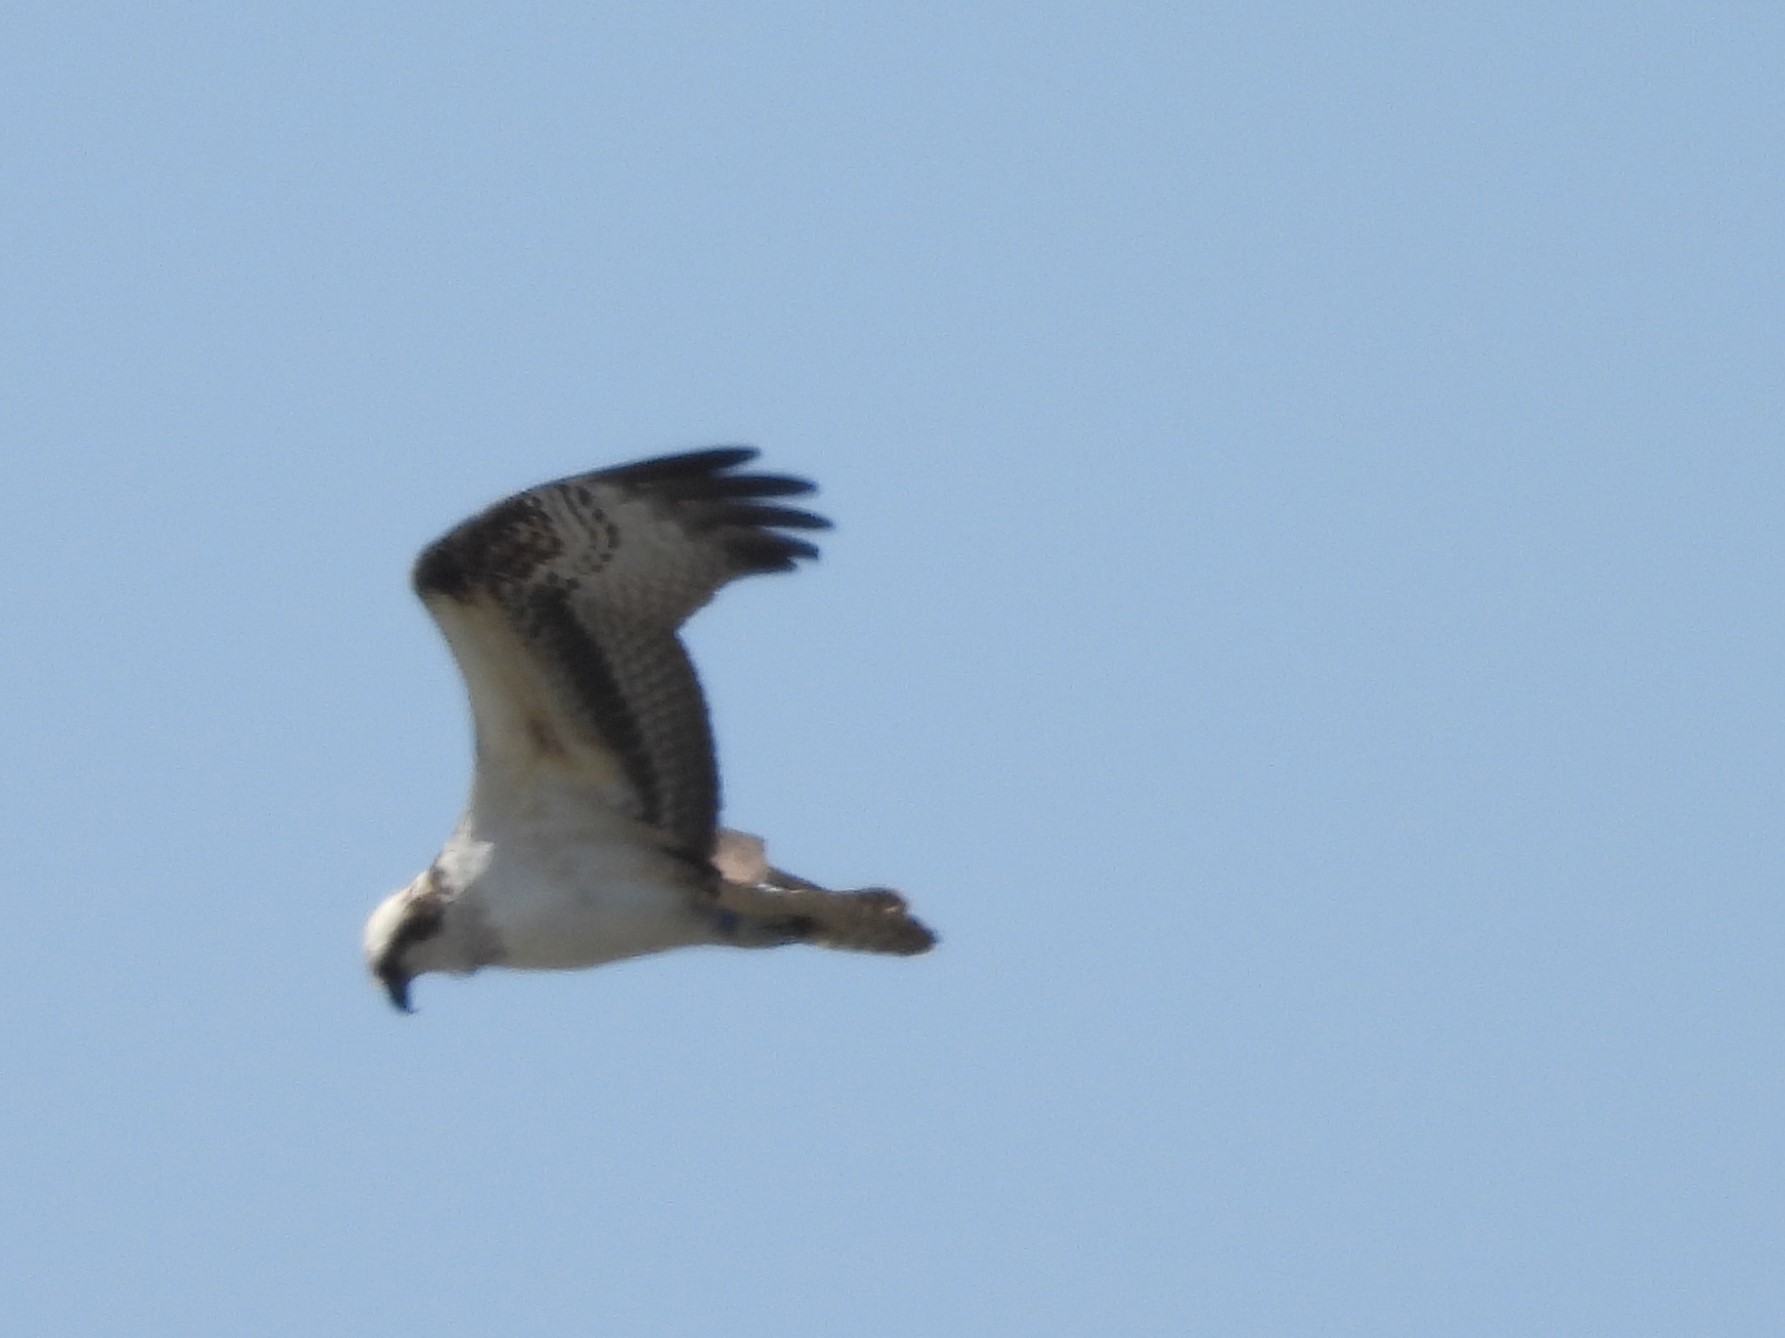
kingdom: Animalia
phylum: Chordata
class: Aves
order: Accipitriformes
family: Pandionidae
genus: Pandion
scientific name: Pandion haliaetus
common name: Osprey
